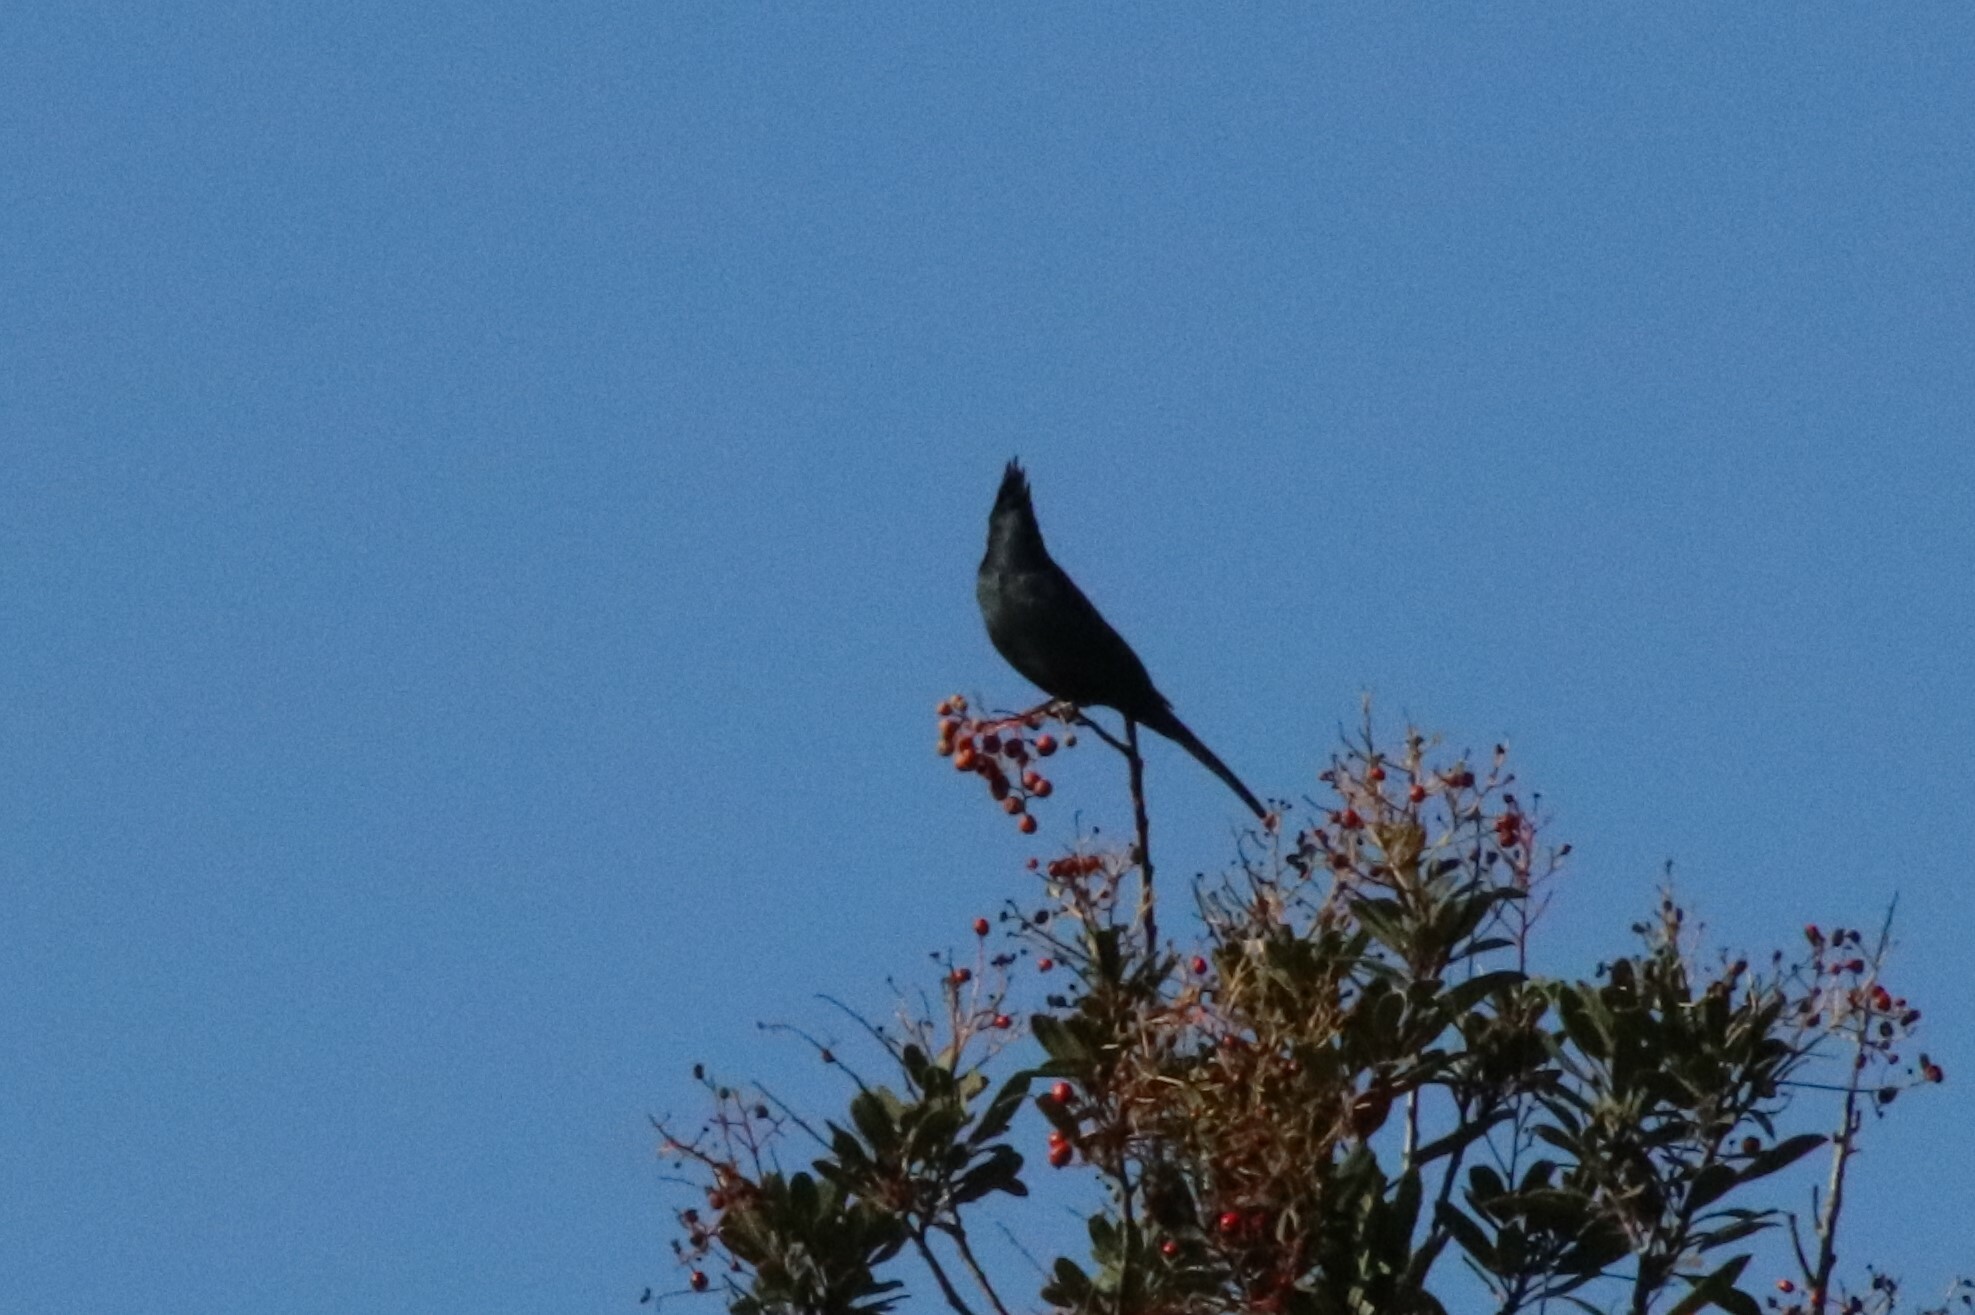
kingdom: Animalia
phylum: Chordata
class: Aves
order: Passeriformes
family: Ptilogonatidae
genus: Phainopepla
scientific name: Phainopepla nitens
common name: Phainopepla
